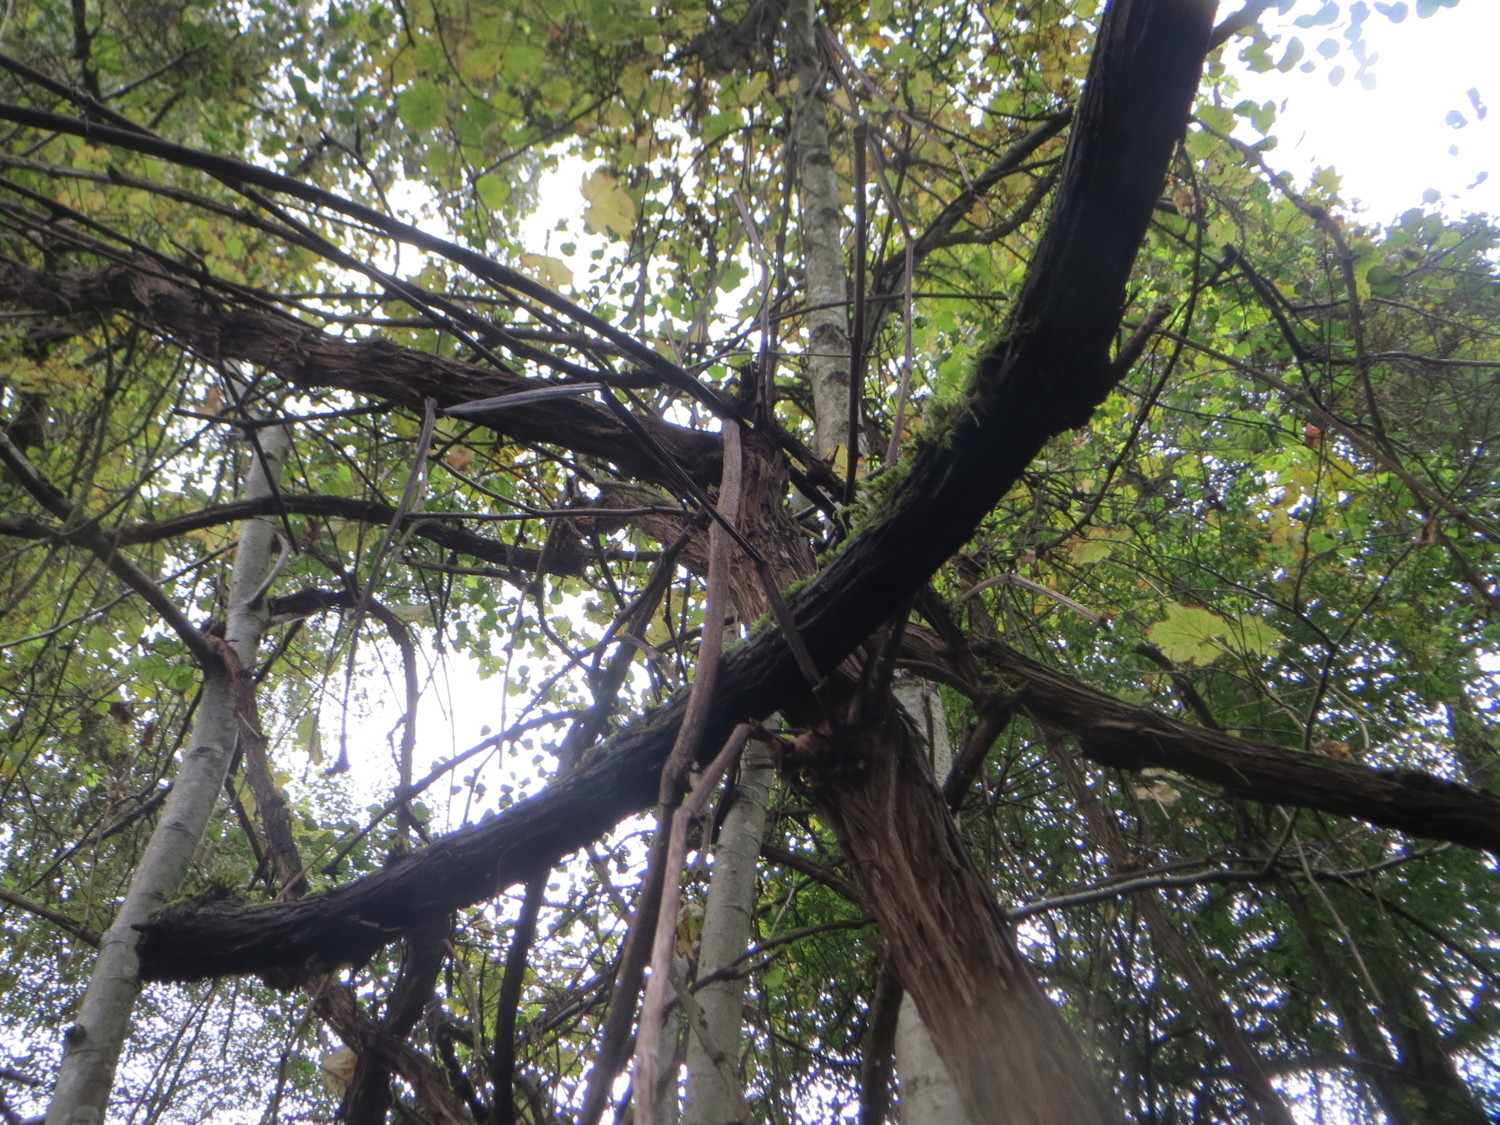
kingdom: Plantae
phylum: Tracheophyta
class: Magnoliopsida
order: Vitales
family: Vitaceae
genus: Vitis
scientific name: Vitis vinifera
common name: Grape-vine
